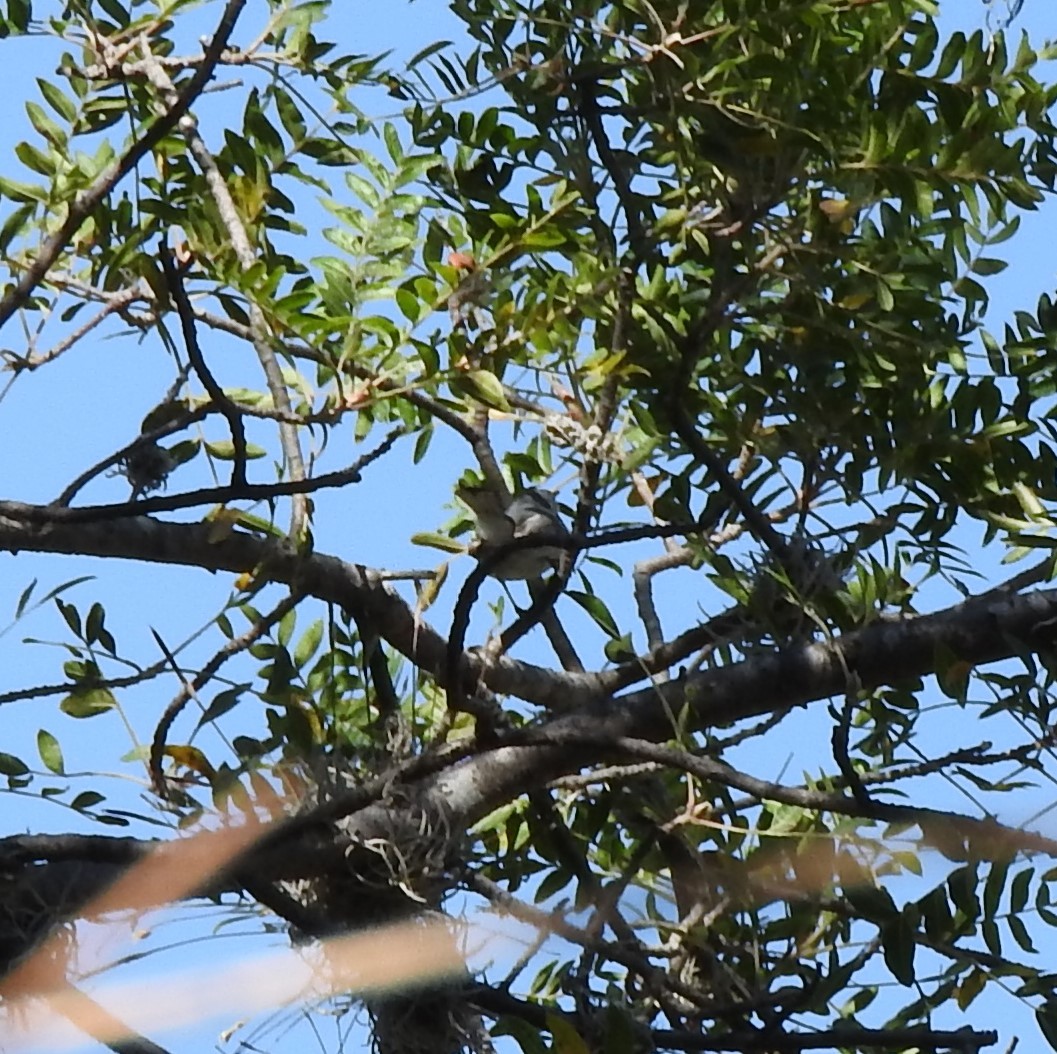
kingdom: Animalia
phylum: Chordata
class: Aves
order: Passeriformes
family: Polioptilidae
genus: Polioptila
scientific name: Polioptila caerulea
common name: Blue-gray gnatcatcher
